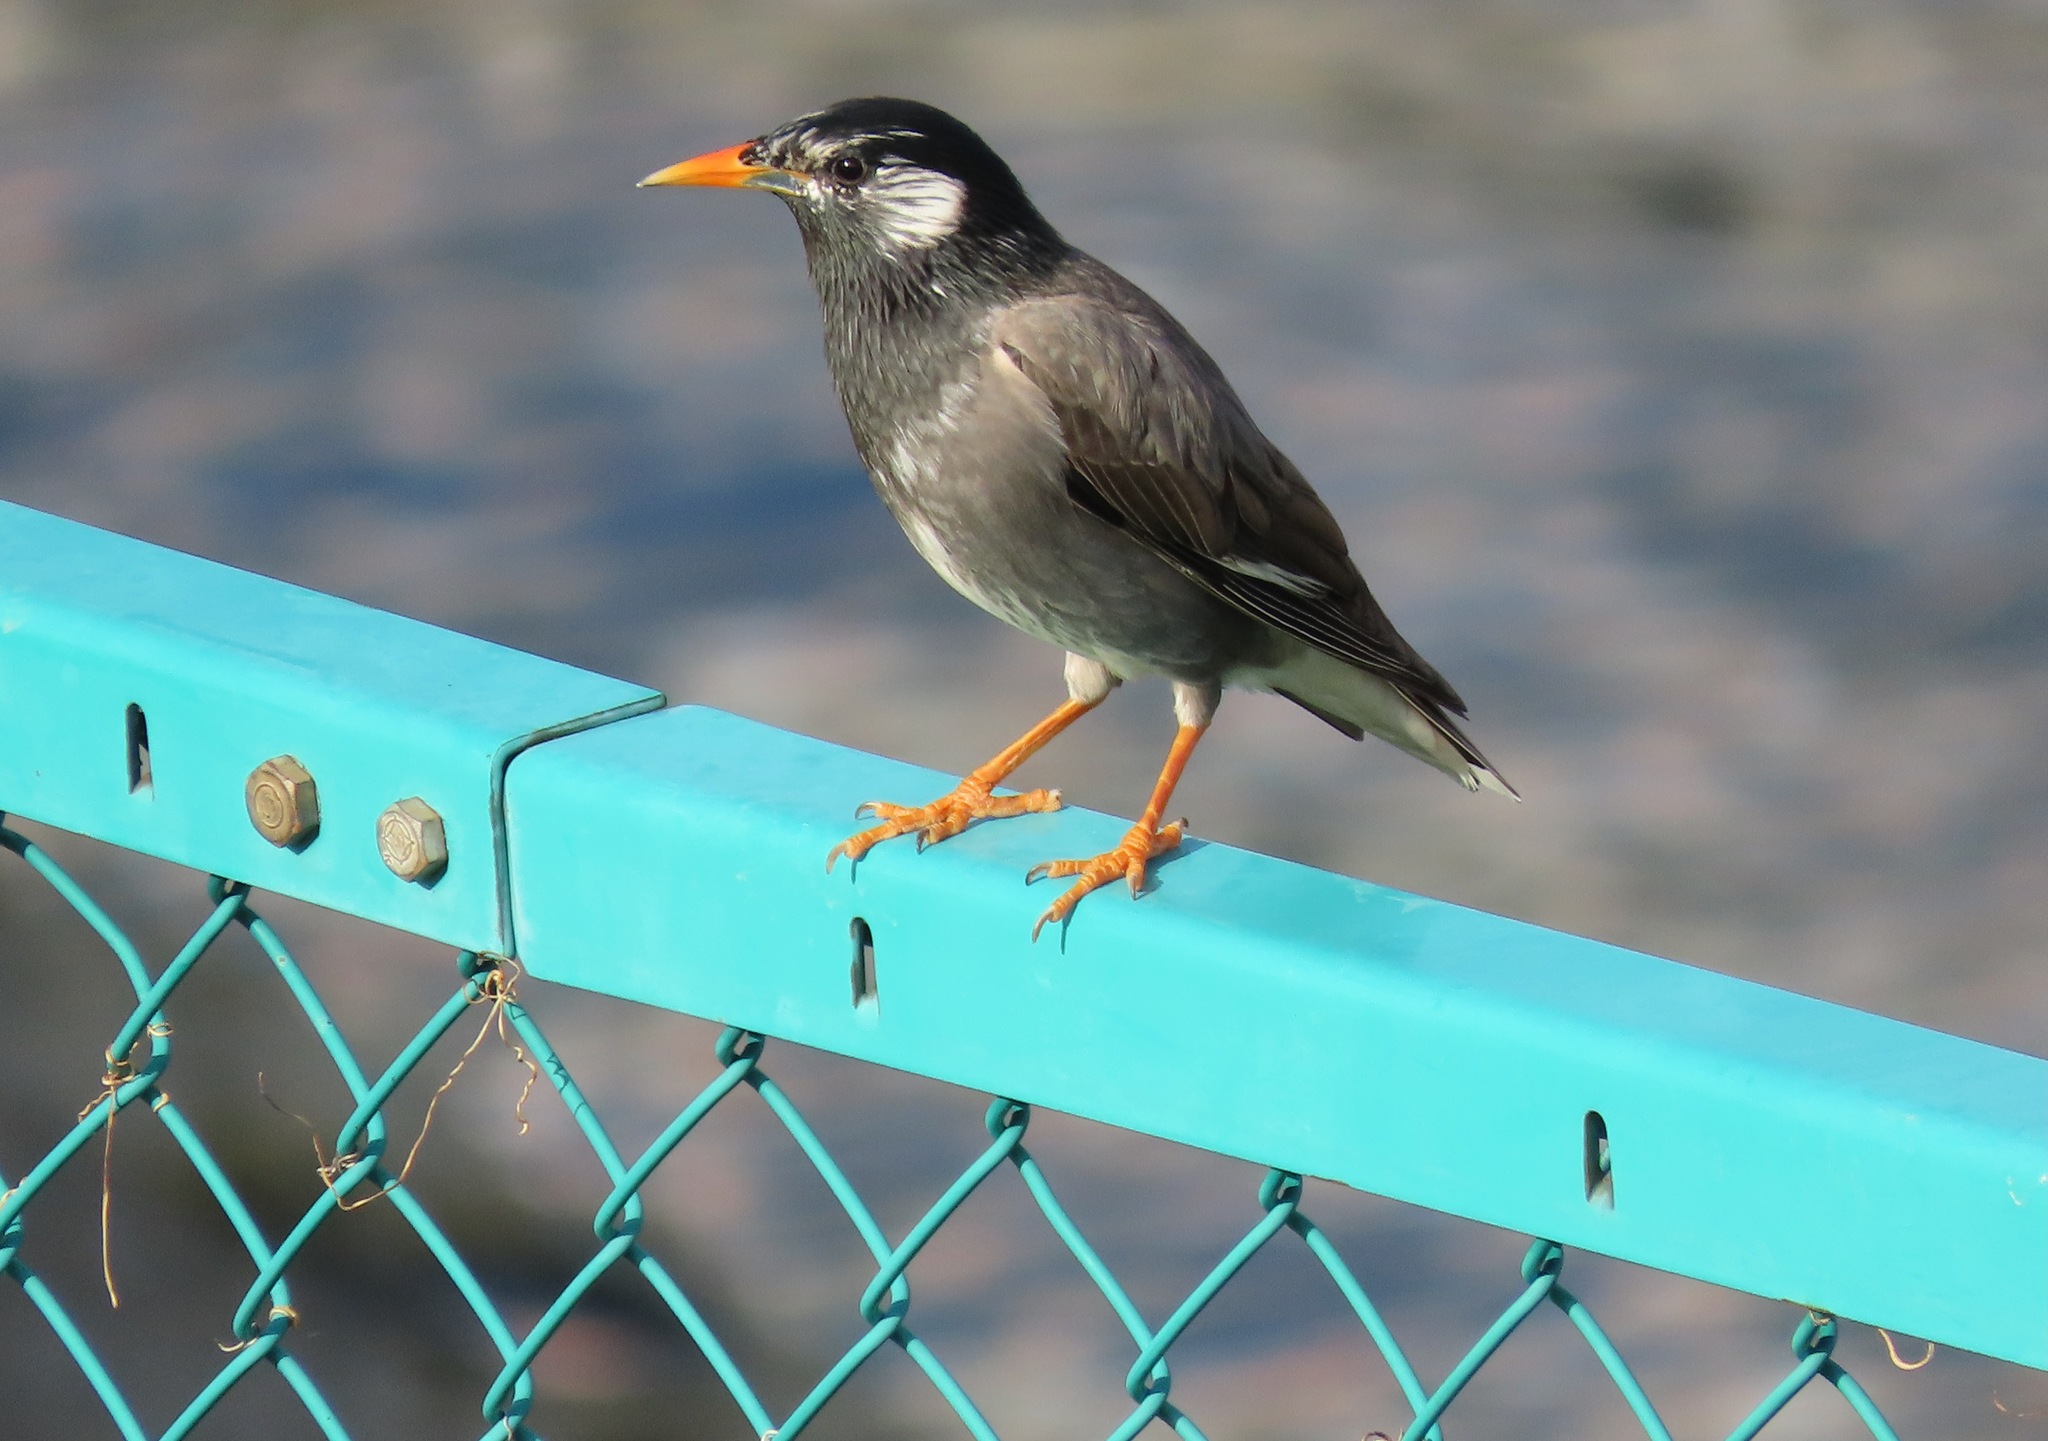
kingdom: Animalia
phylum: Chordata
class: Aves
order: Passeriformes
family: Sturnidae
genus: Spodiopsar
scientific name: Spodiopsar cineraceus
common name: White-cheeked starling
